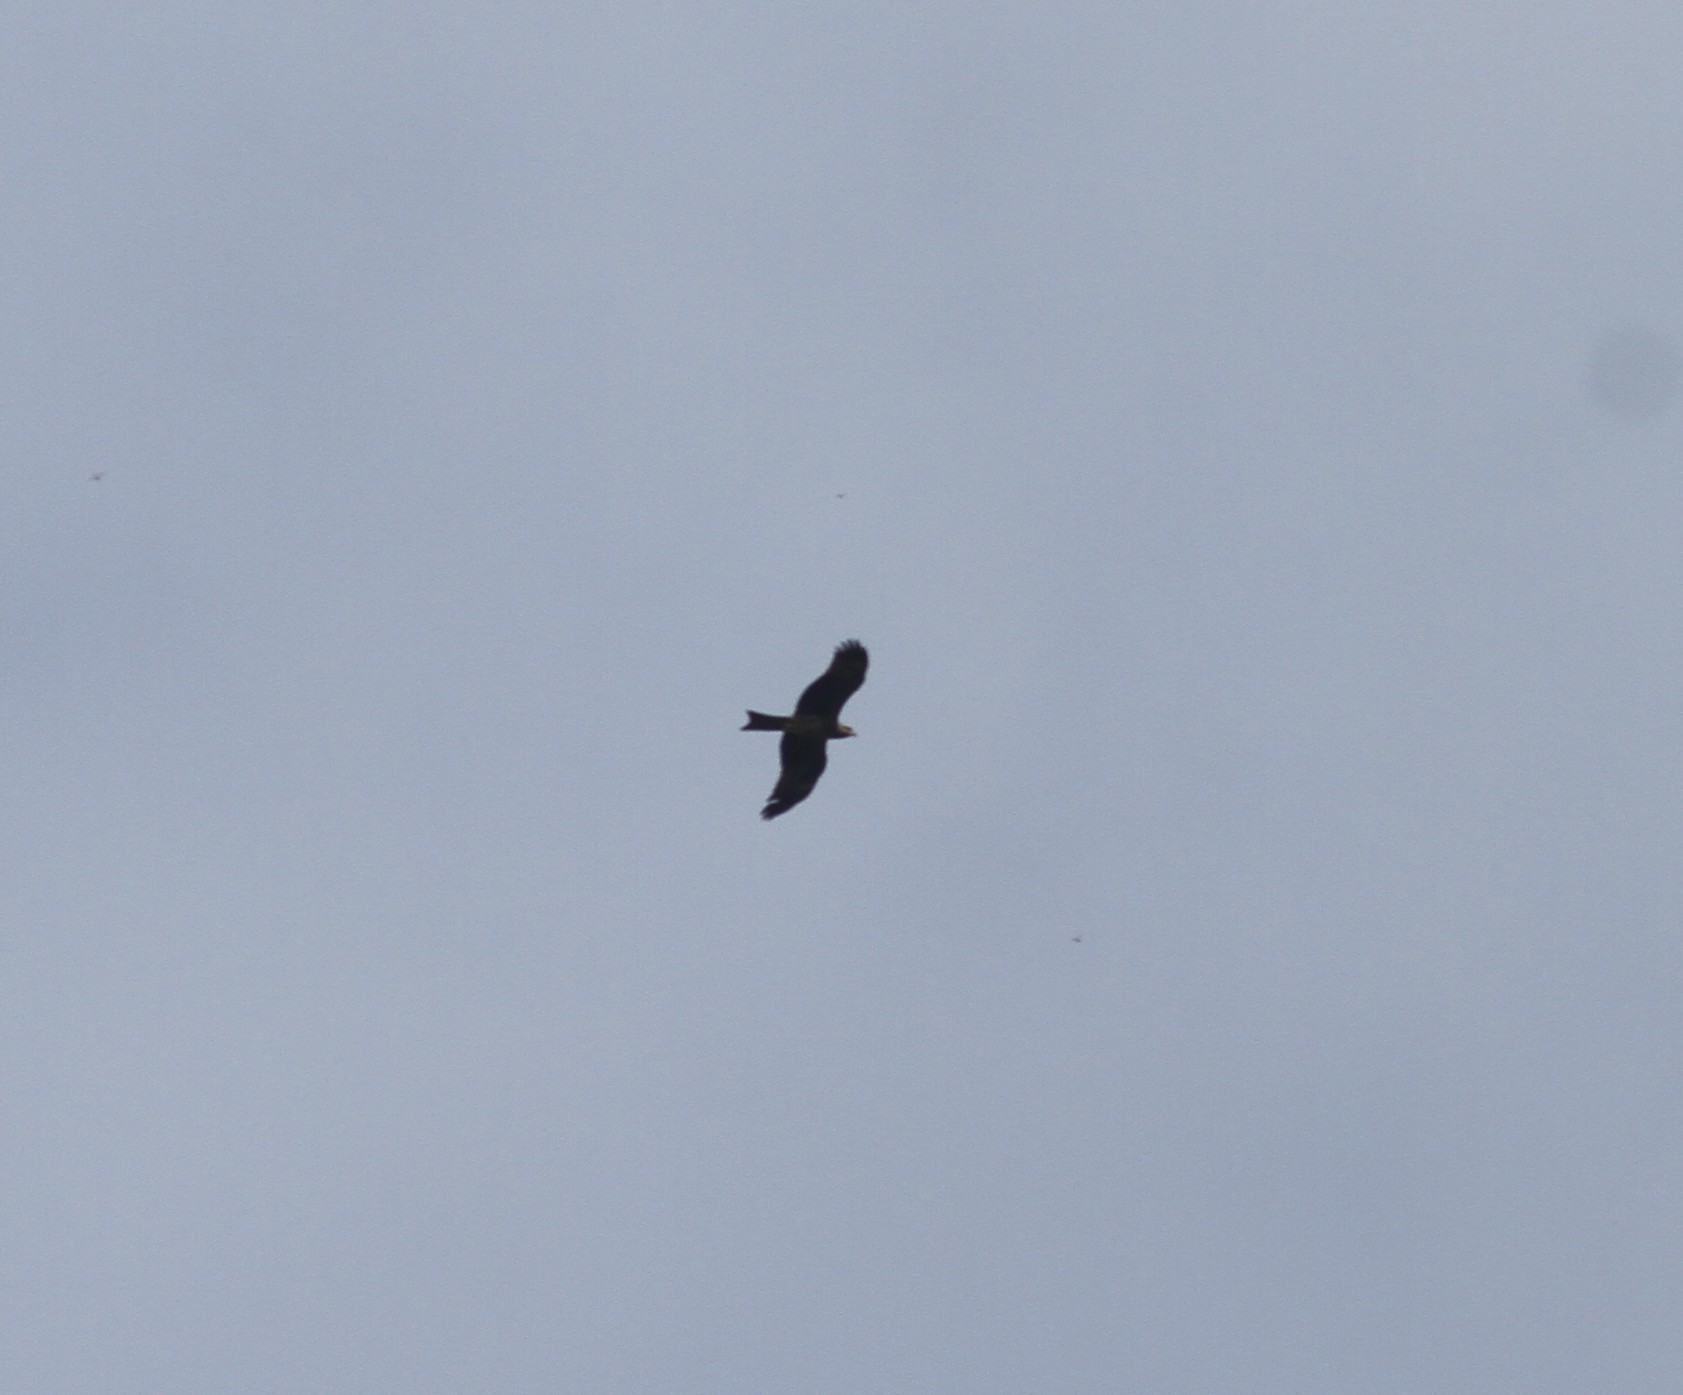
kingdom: Animalia
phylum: Chordata
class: Aves
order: Accipitriformes
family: Accipitridae
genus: Milvus
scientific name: Milvus migrans
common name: Black kite
